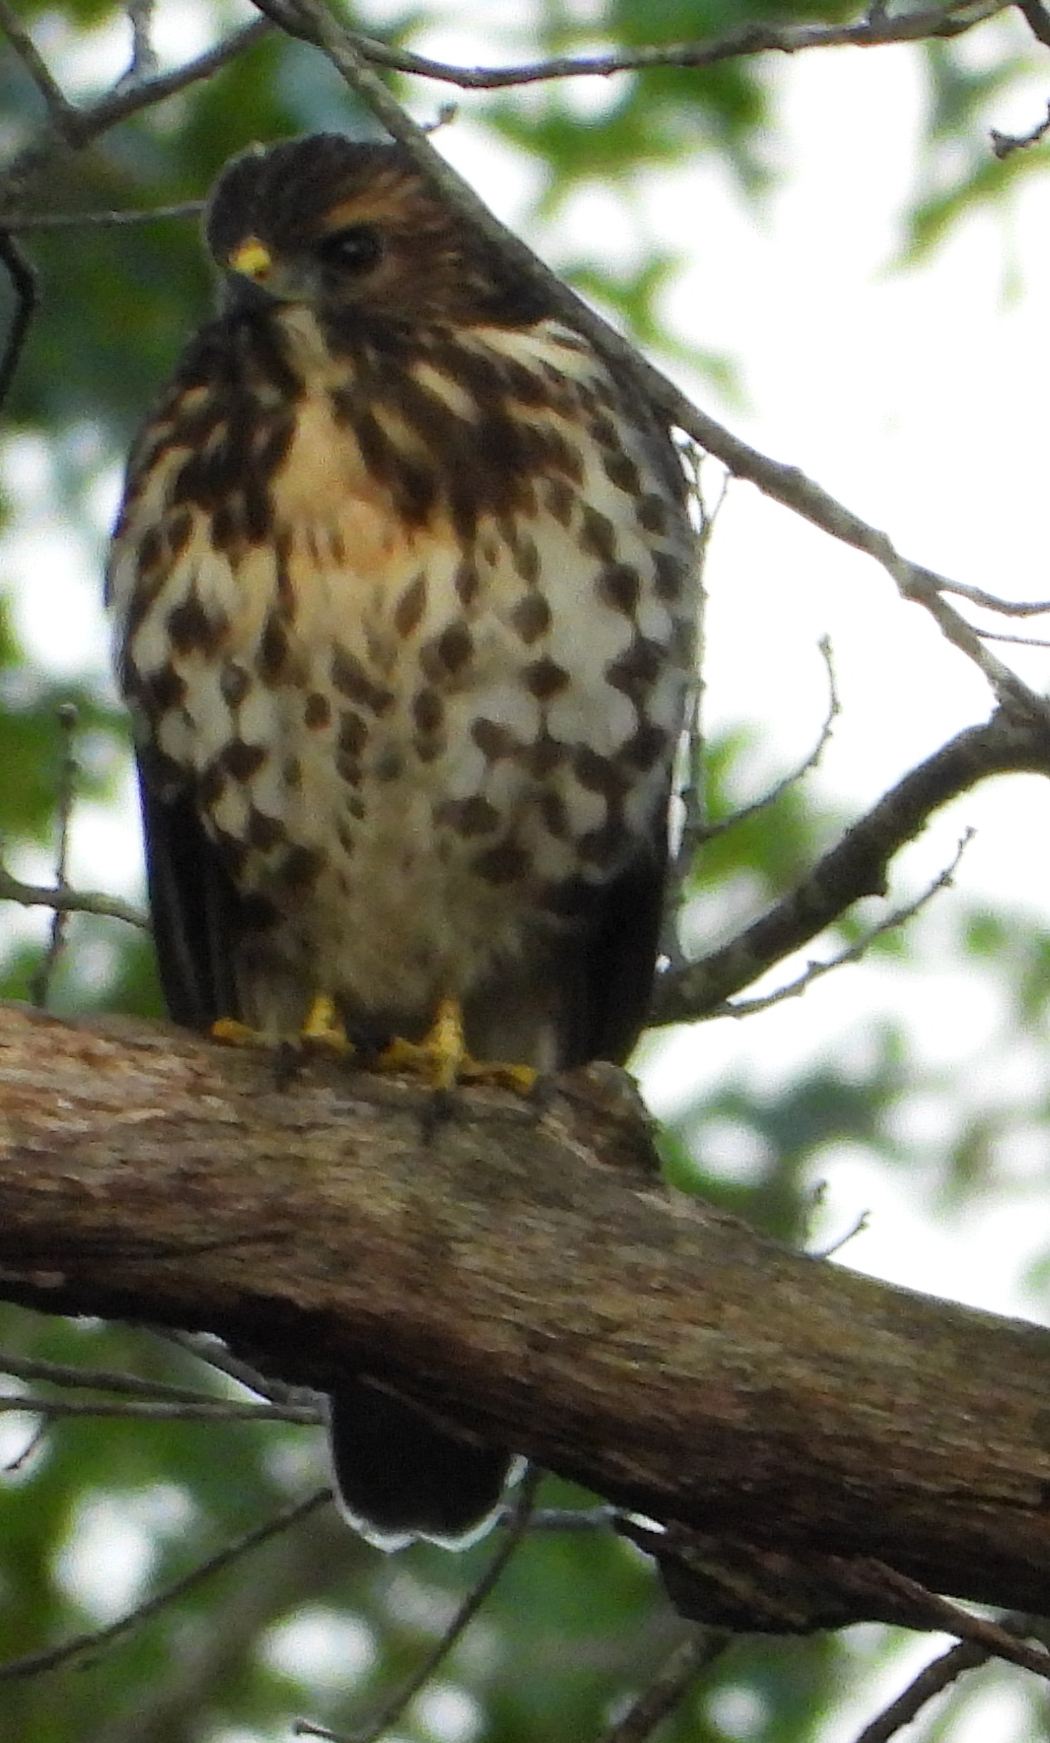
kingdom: Animalia
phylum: Chordata
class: Aves
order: Accipitriformes
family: Accipitridae
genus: Buteo
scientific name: Buteo platypterus
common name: Broad-winged hawk
